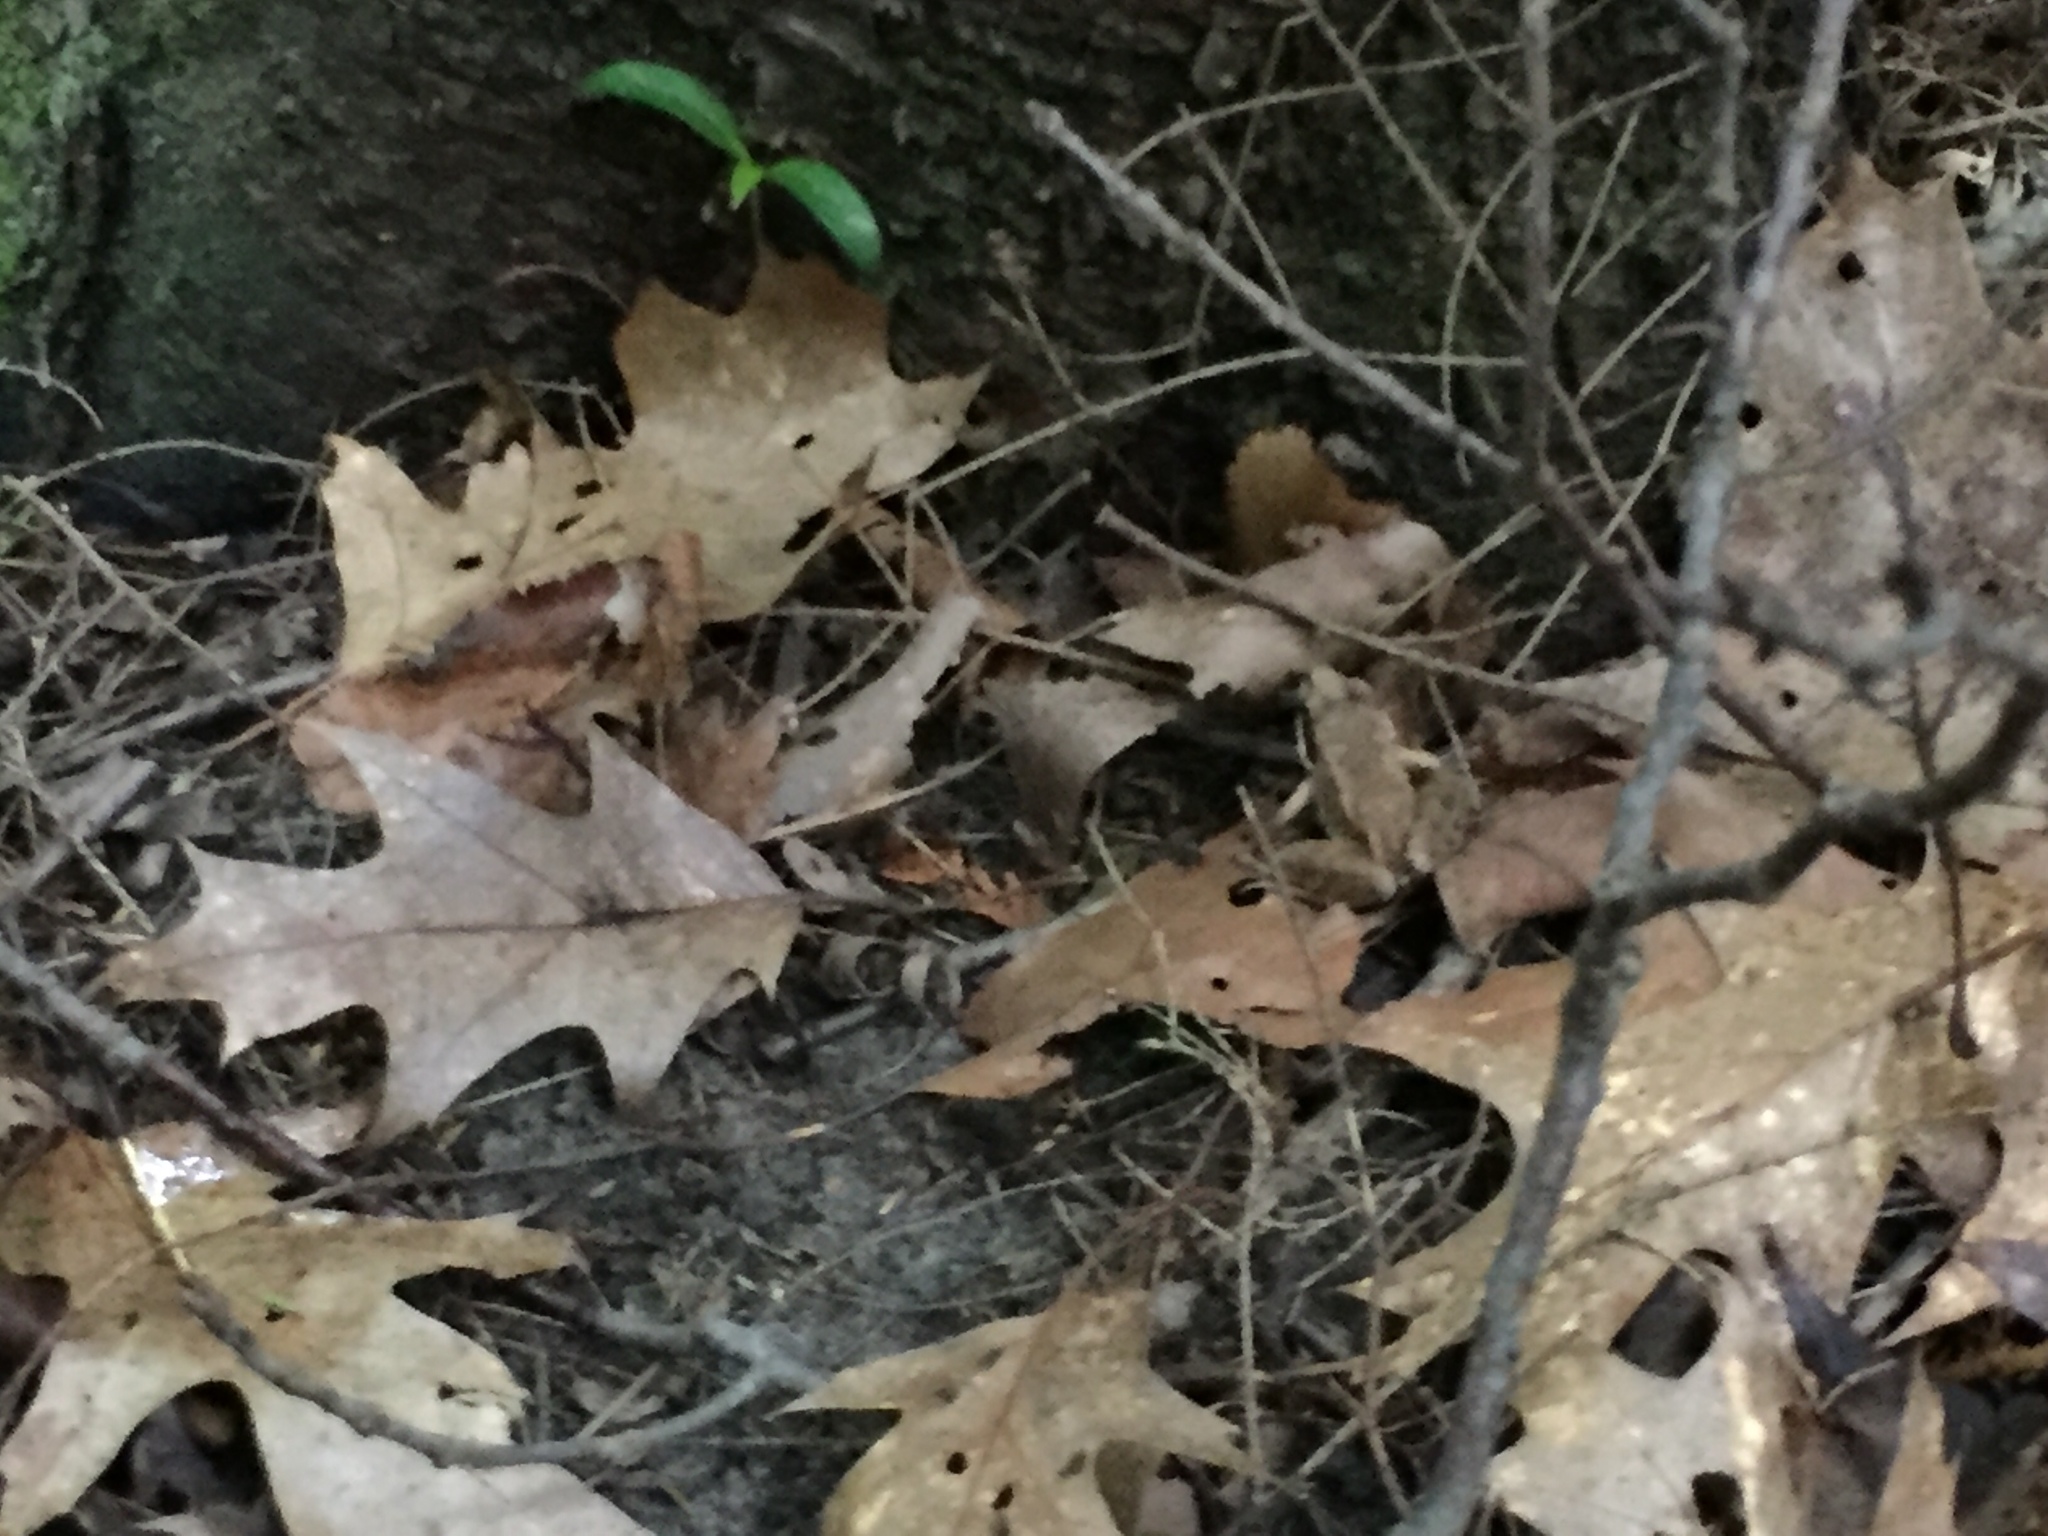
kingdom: Animalia
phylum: Chordata
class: Amphibia
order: Anura
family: Ranidae
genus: Lithobates
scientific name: Lithobates sylvaticus
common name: Wood frog
